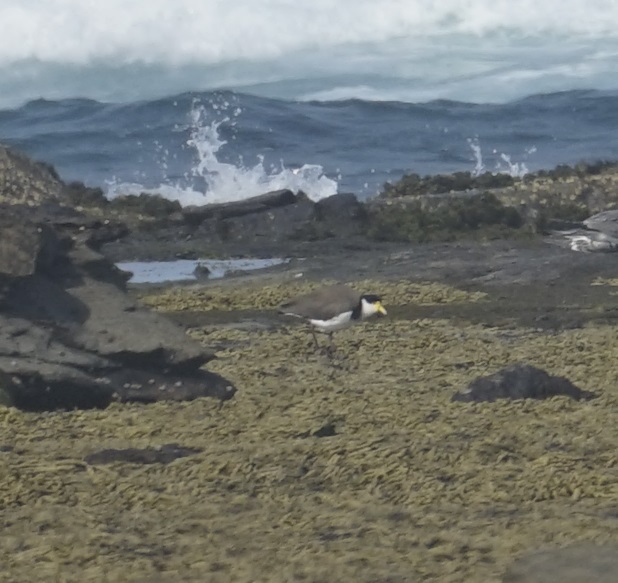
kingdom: Animalia
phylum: Chordata
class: Aves
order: Charadriiformes
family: Charadriidae
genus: Vanellus
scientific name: Vanellus miles
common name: Masked lapwing
